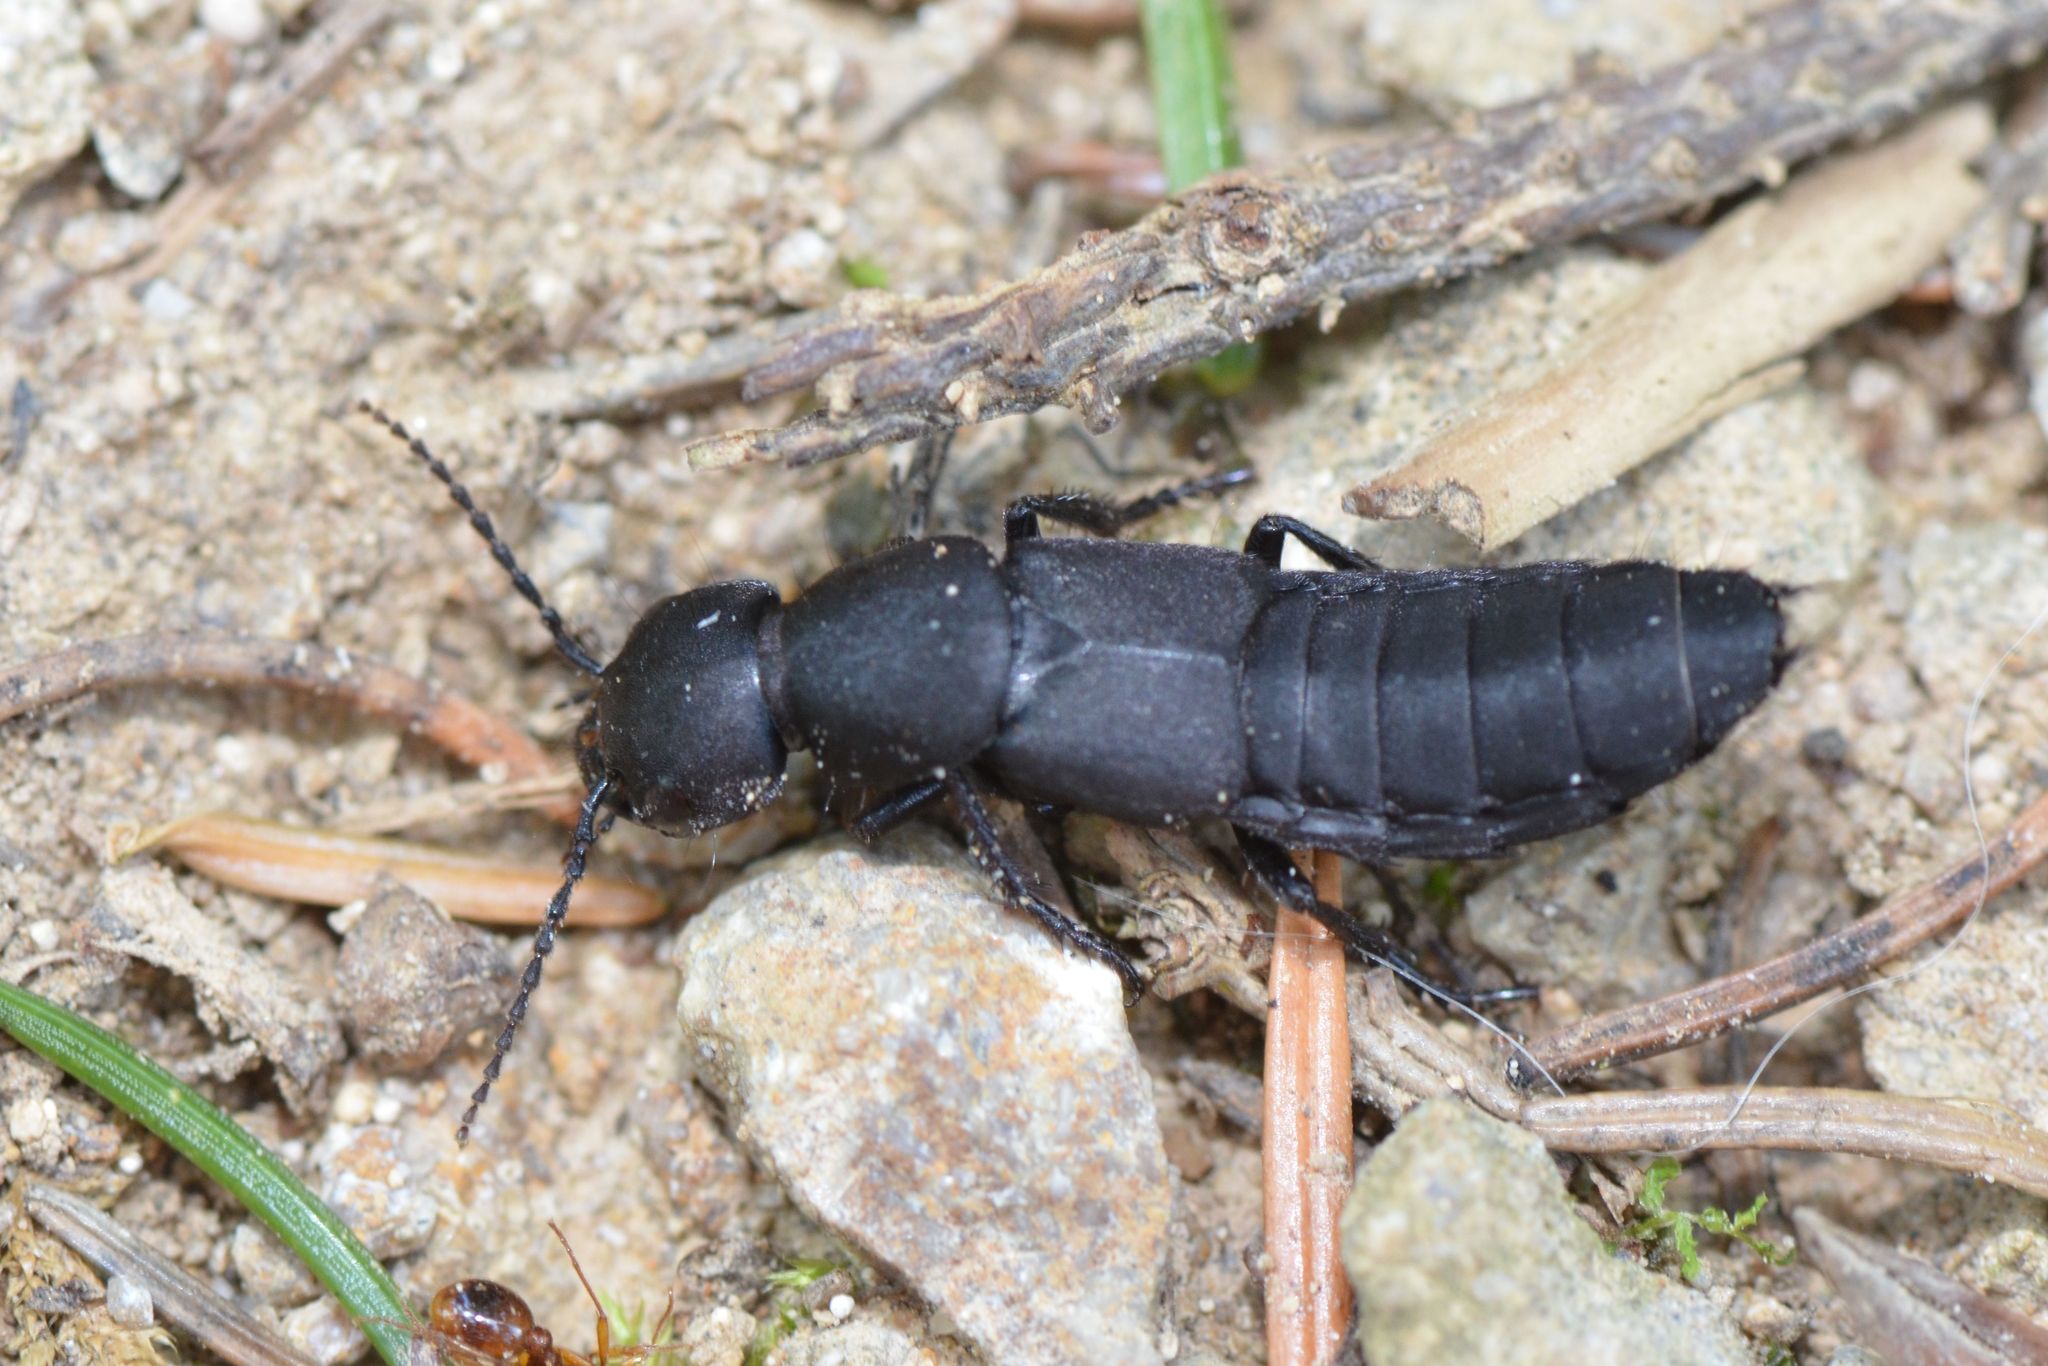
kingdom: Animalia
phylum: Arthropoda
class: Insecta
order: Coleoptera
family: Staphylinidae
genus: Ocypus
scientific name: Ocypus olens
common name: Devil's coach-horse
